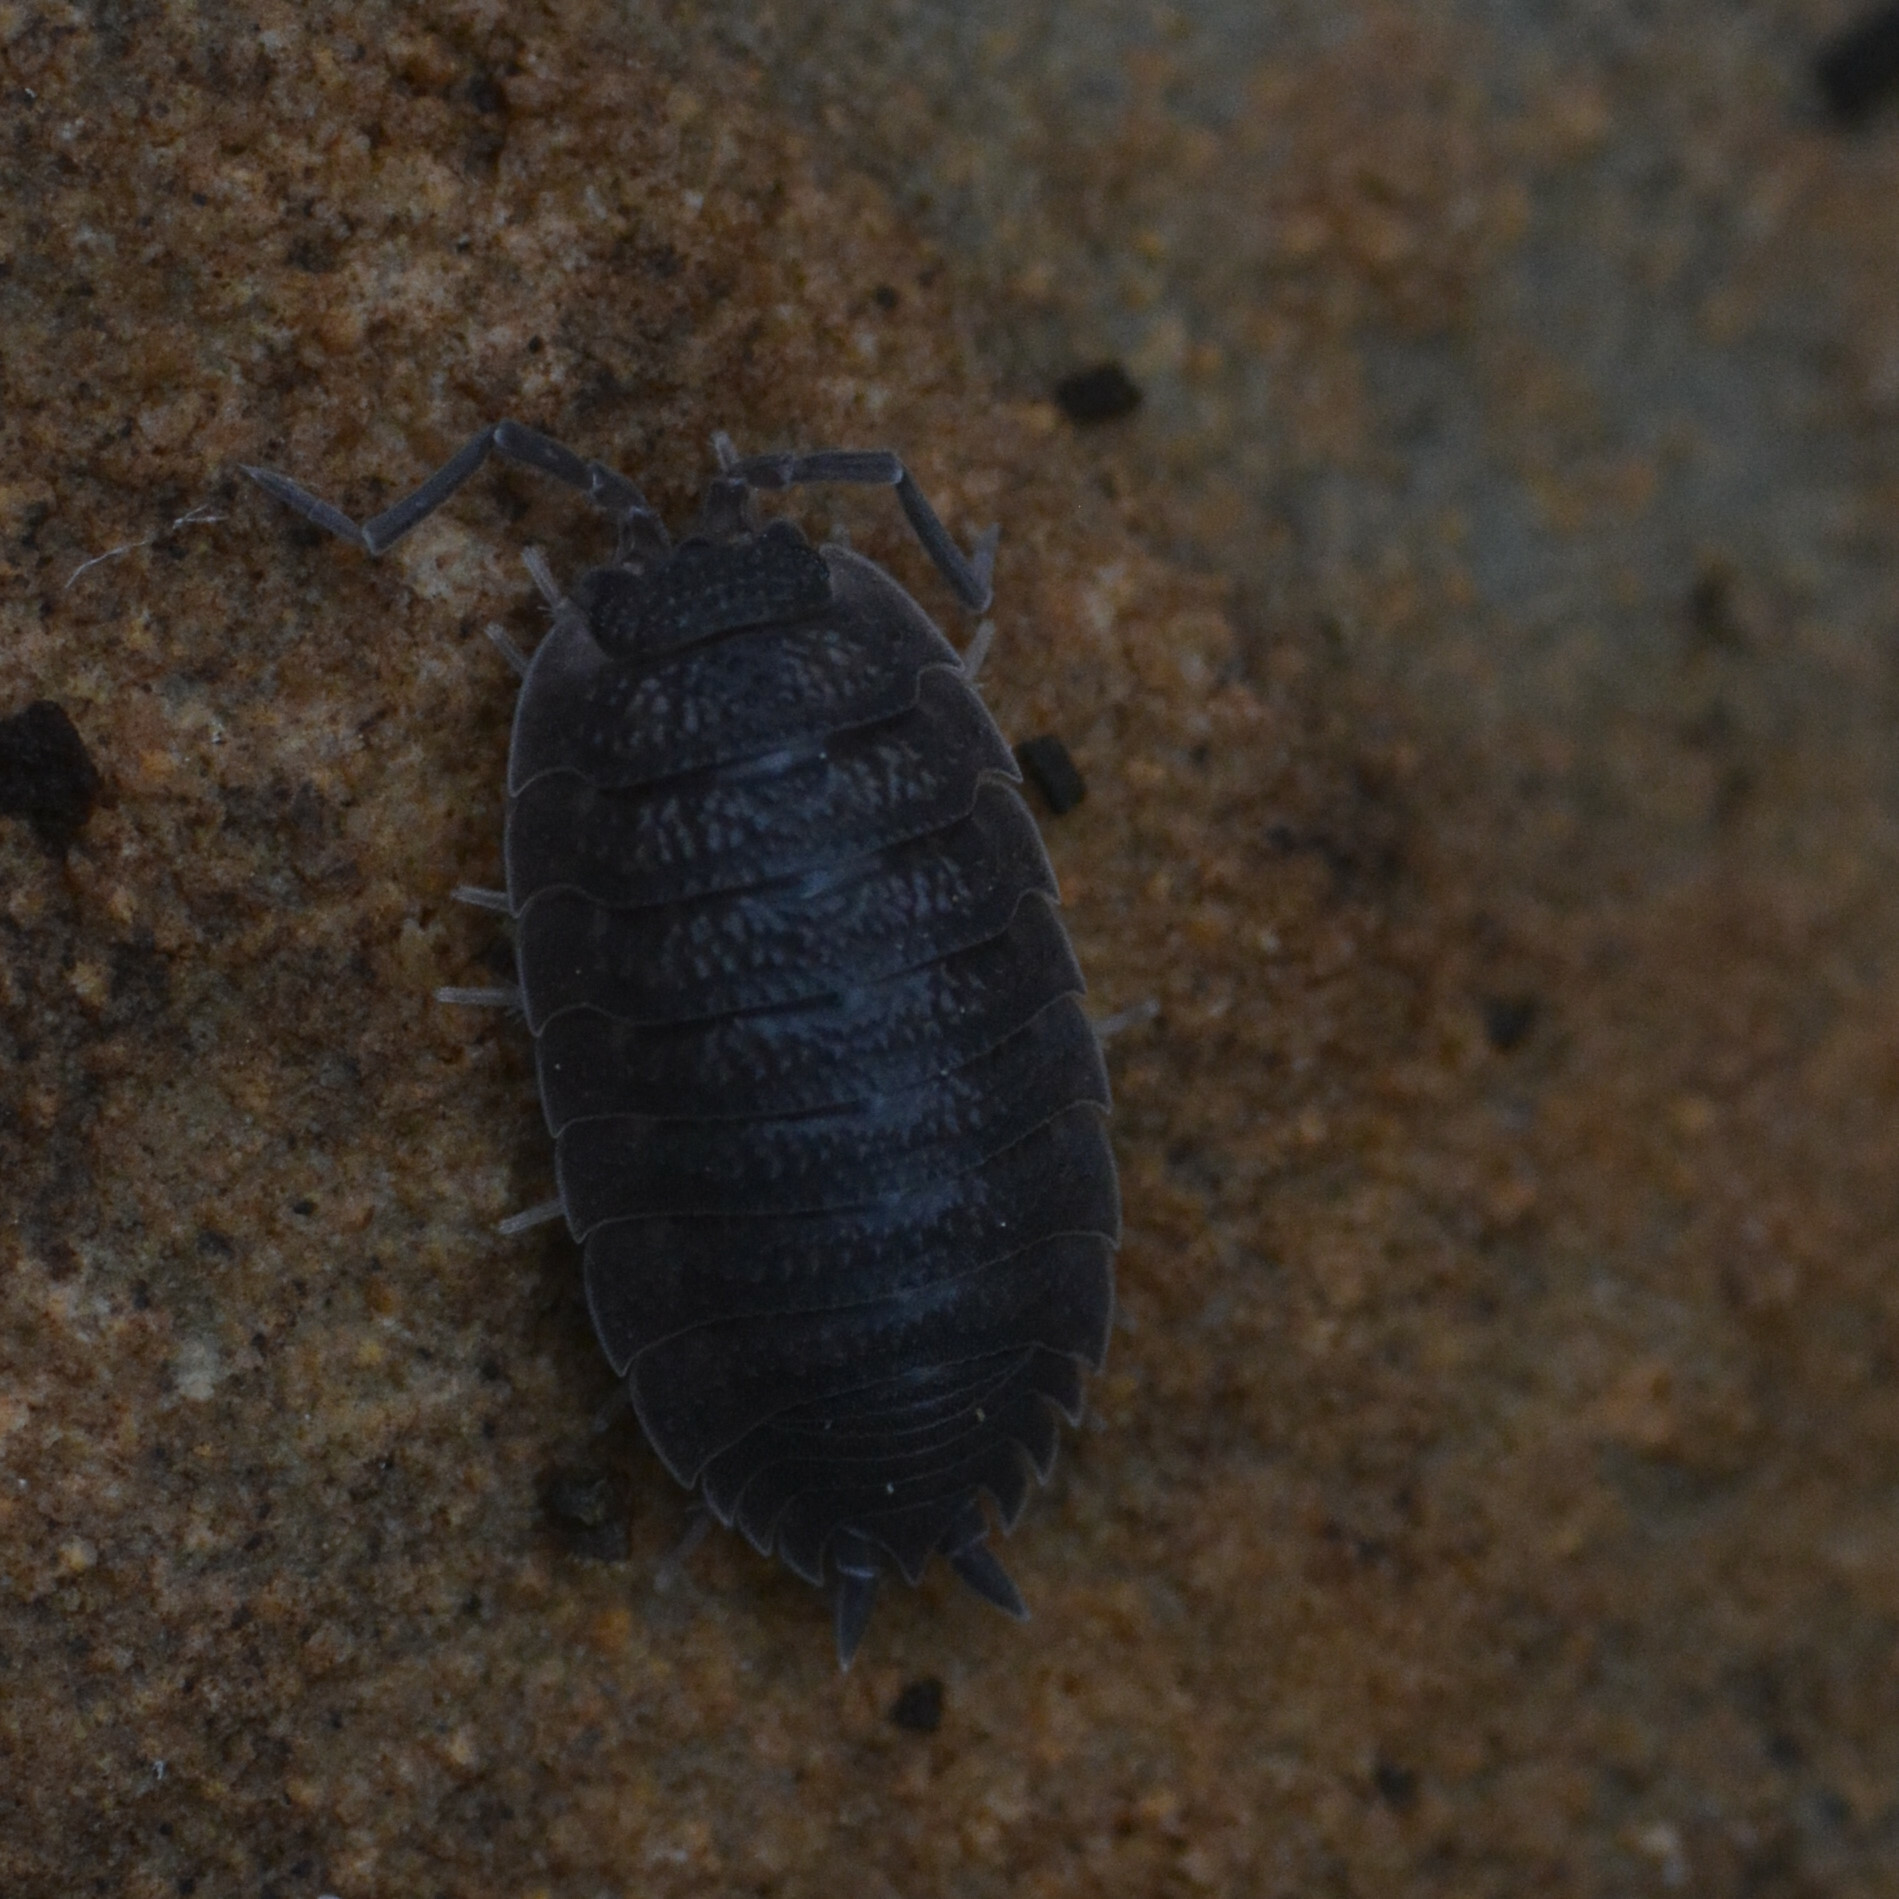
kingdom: Animalia
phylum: Arthropoda
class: Malacostraca
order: Isopoda
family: Porcellionidae
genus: Porcellio
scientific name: Porcellio scaber
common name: Common rough woodlouse
